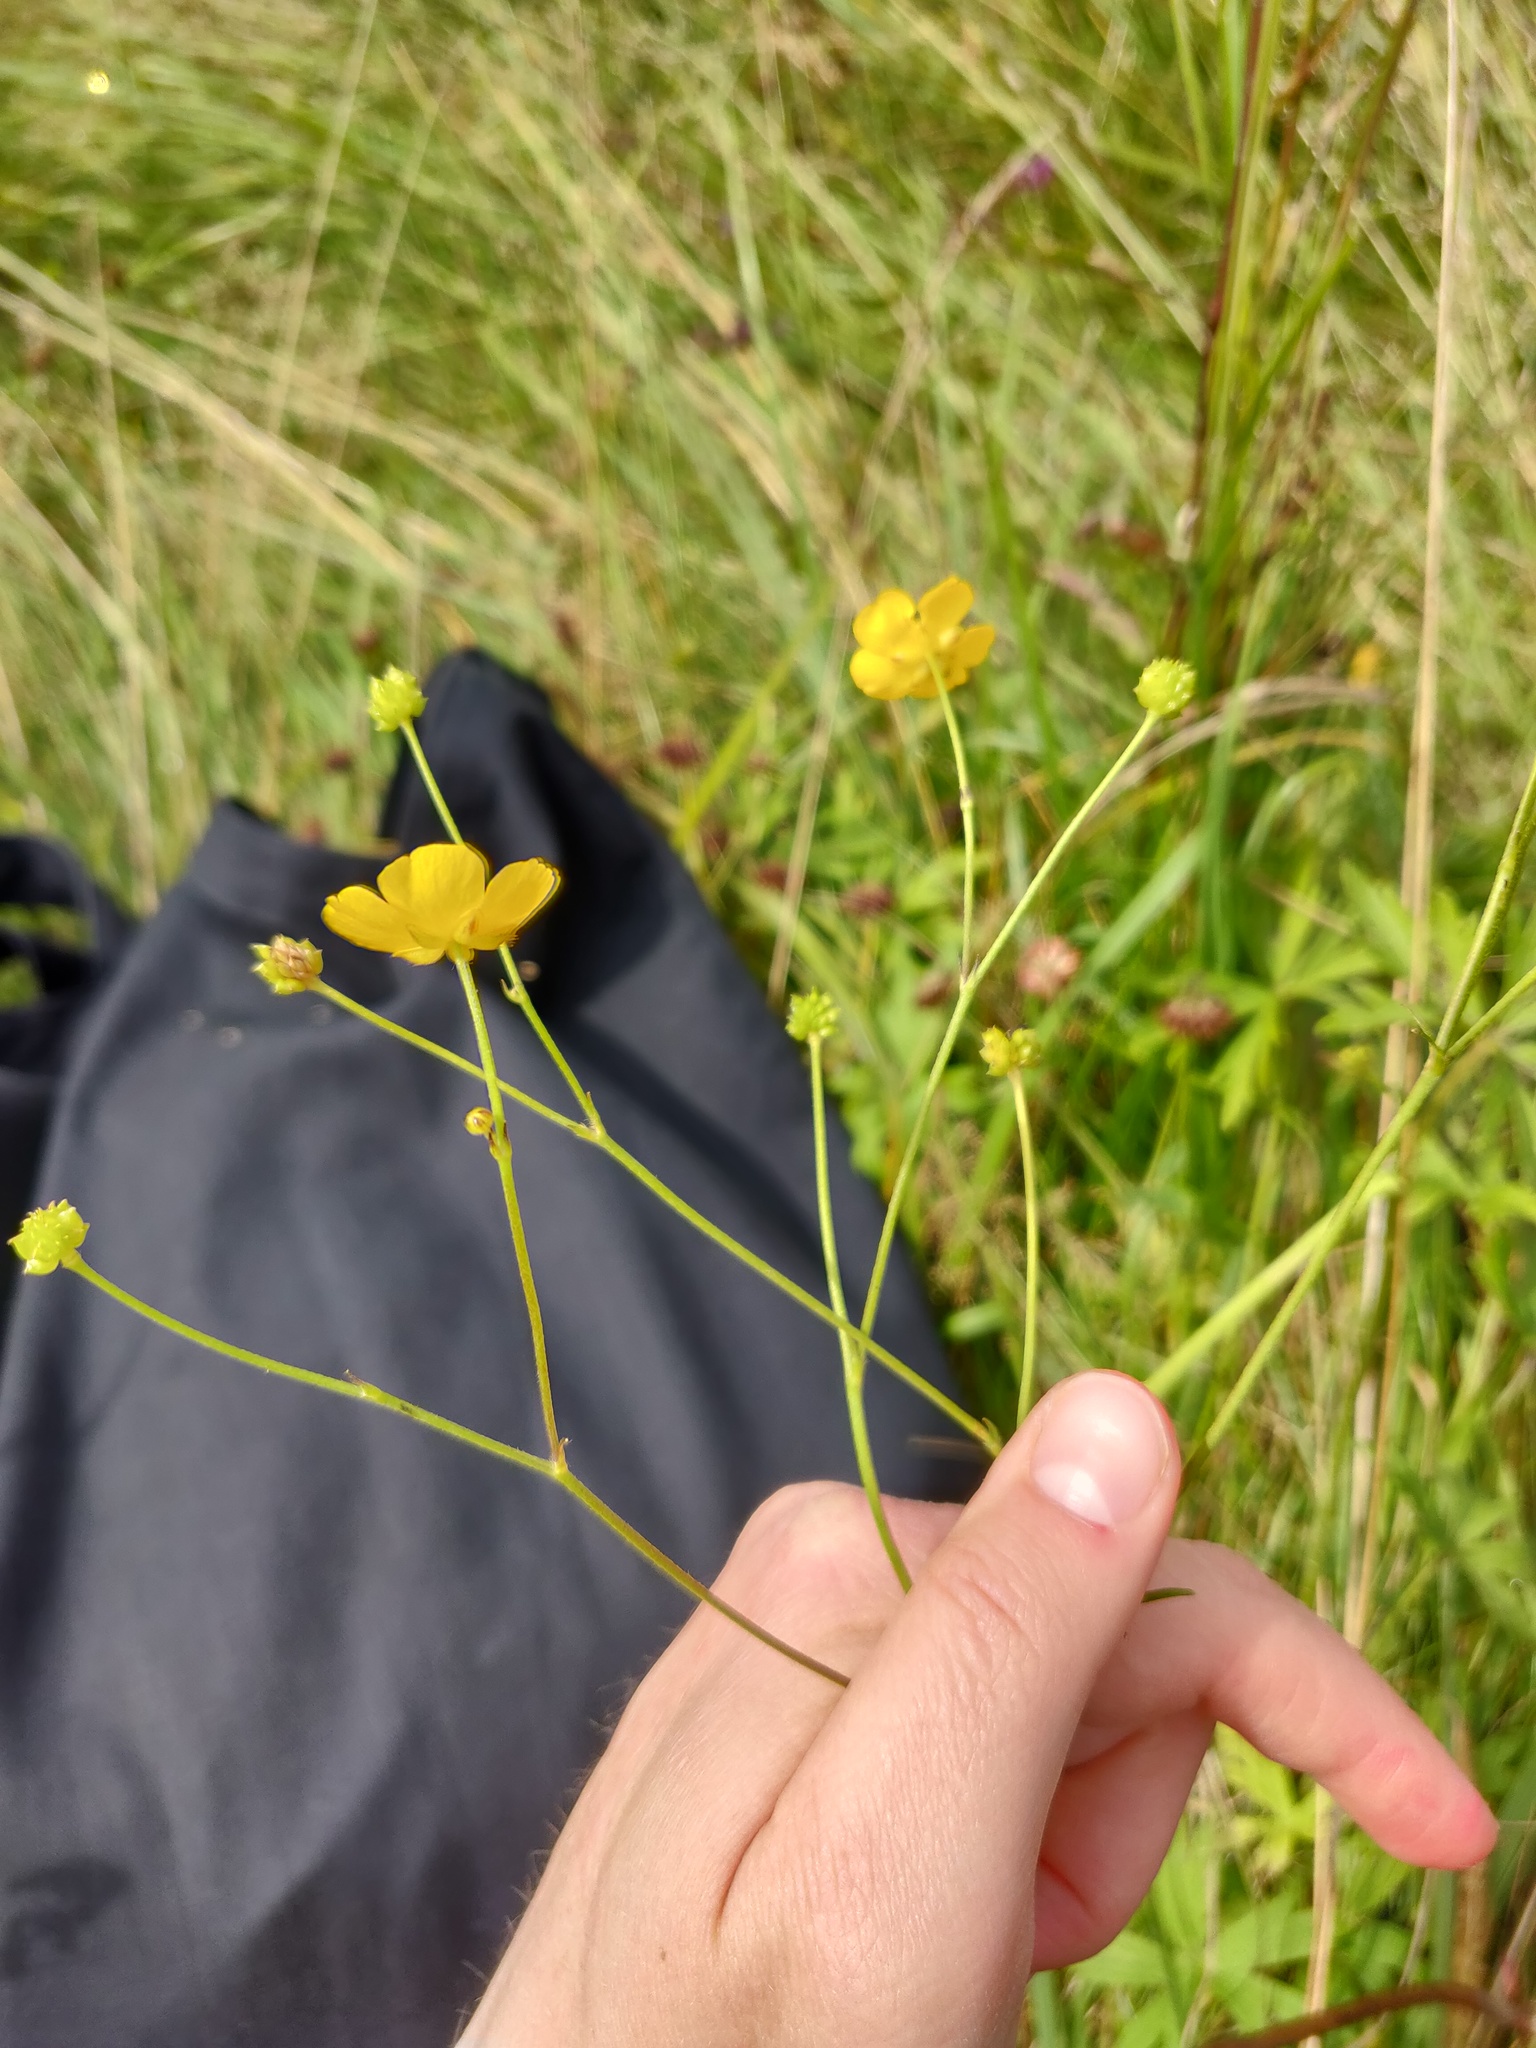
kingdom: Plantae
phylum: Tracheophyta
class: Magnoliopsida
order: Ranunculales
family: Ranunculaceae
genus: Ranunculus
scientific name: Ranunculus acris
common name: Meadow buttercup
